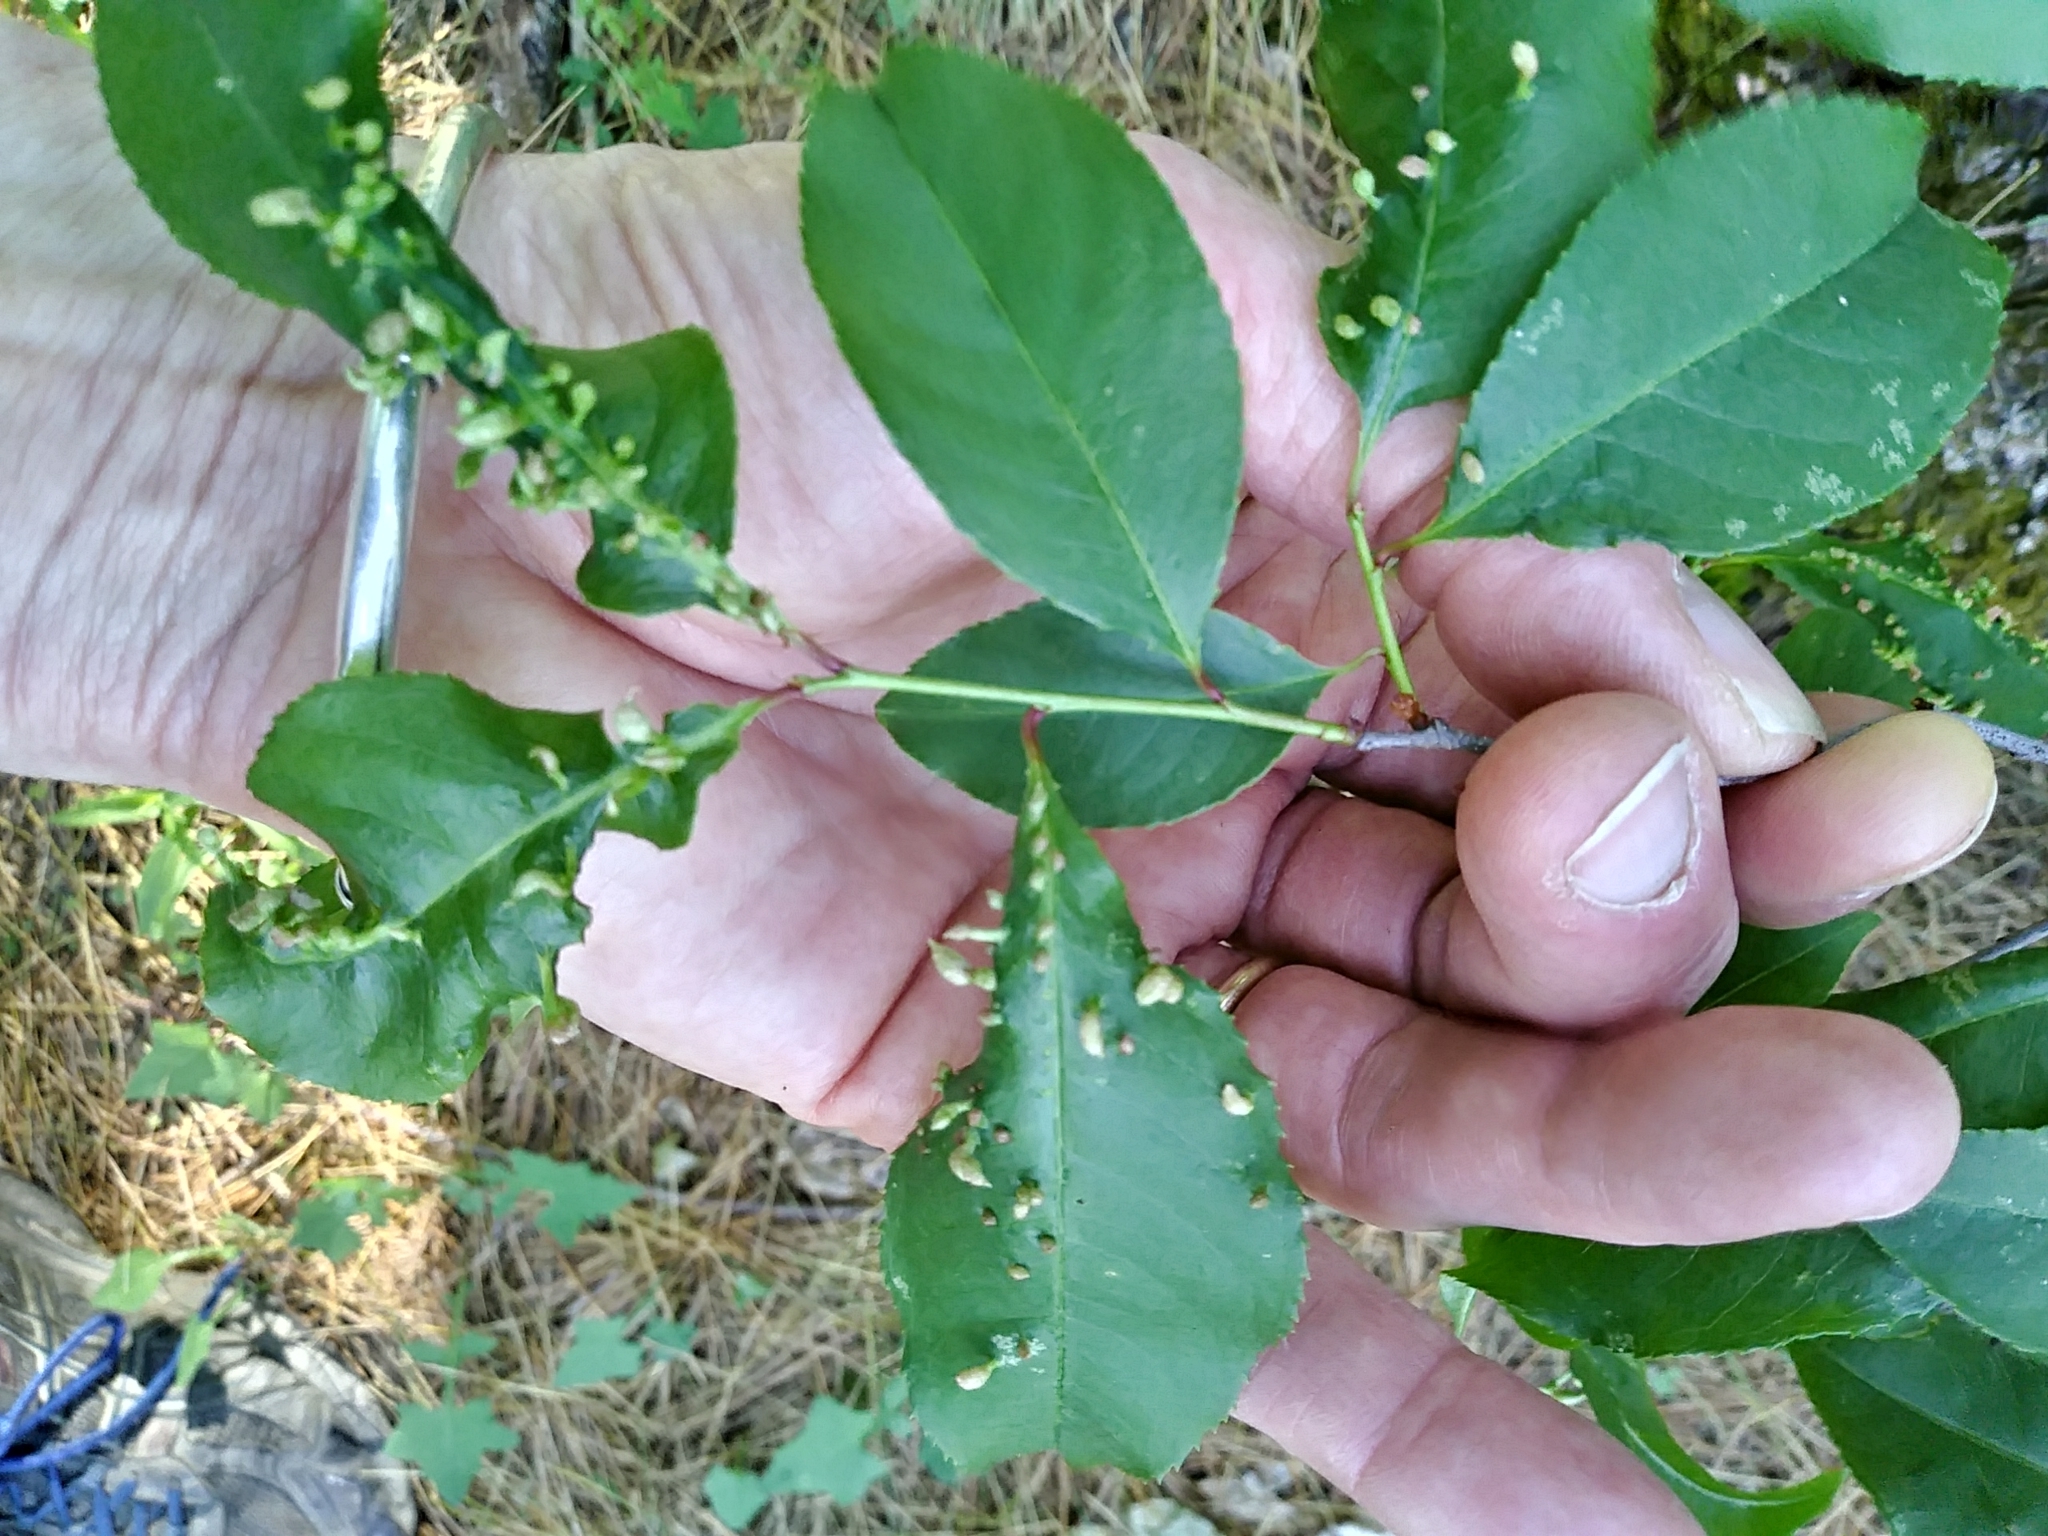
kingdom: Animalia
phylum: Arthropoda
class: Arachnida
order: Trombidiformes
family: Eriophyidae
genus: Eriophyes
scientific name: Eriophyes
